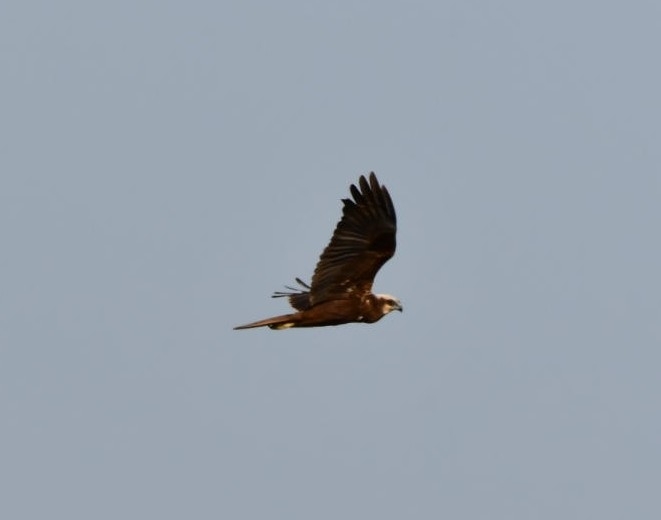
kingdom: Animalia
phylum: Chordata
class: Aves
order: Accipitriformes
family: Accipitridae
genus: Circus
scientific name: Circus aeruginosus
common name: Western marsh harrier
